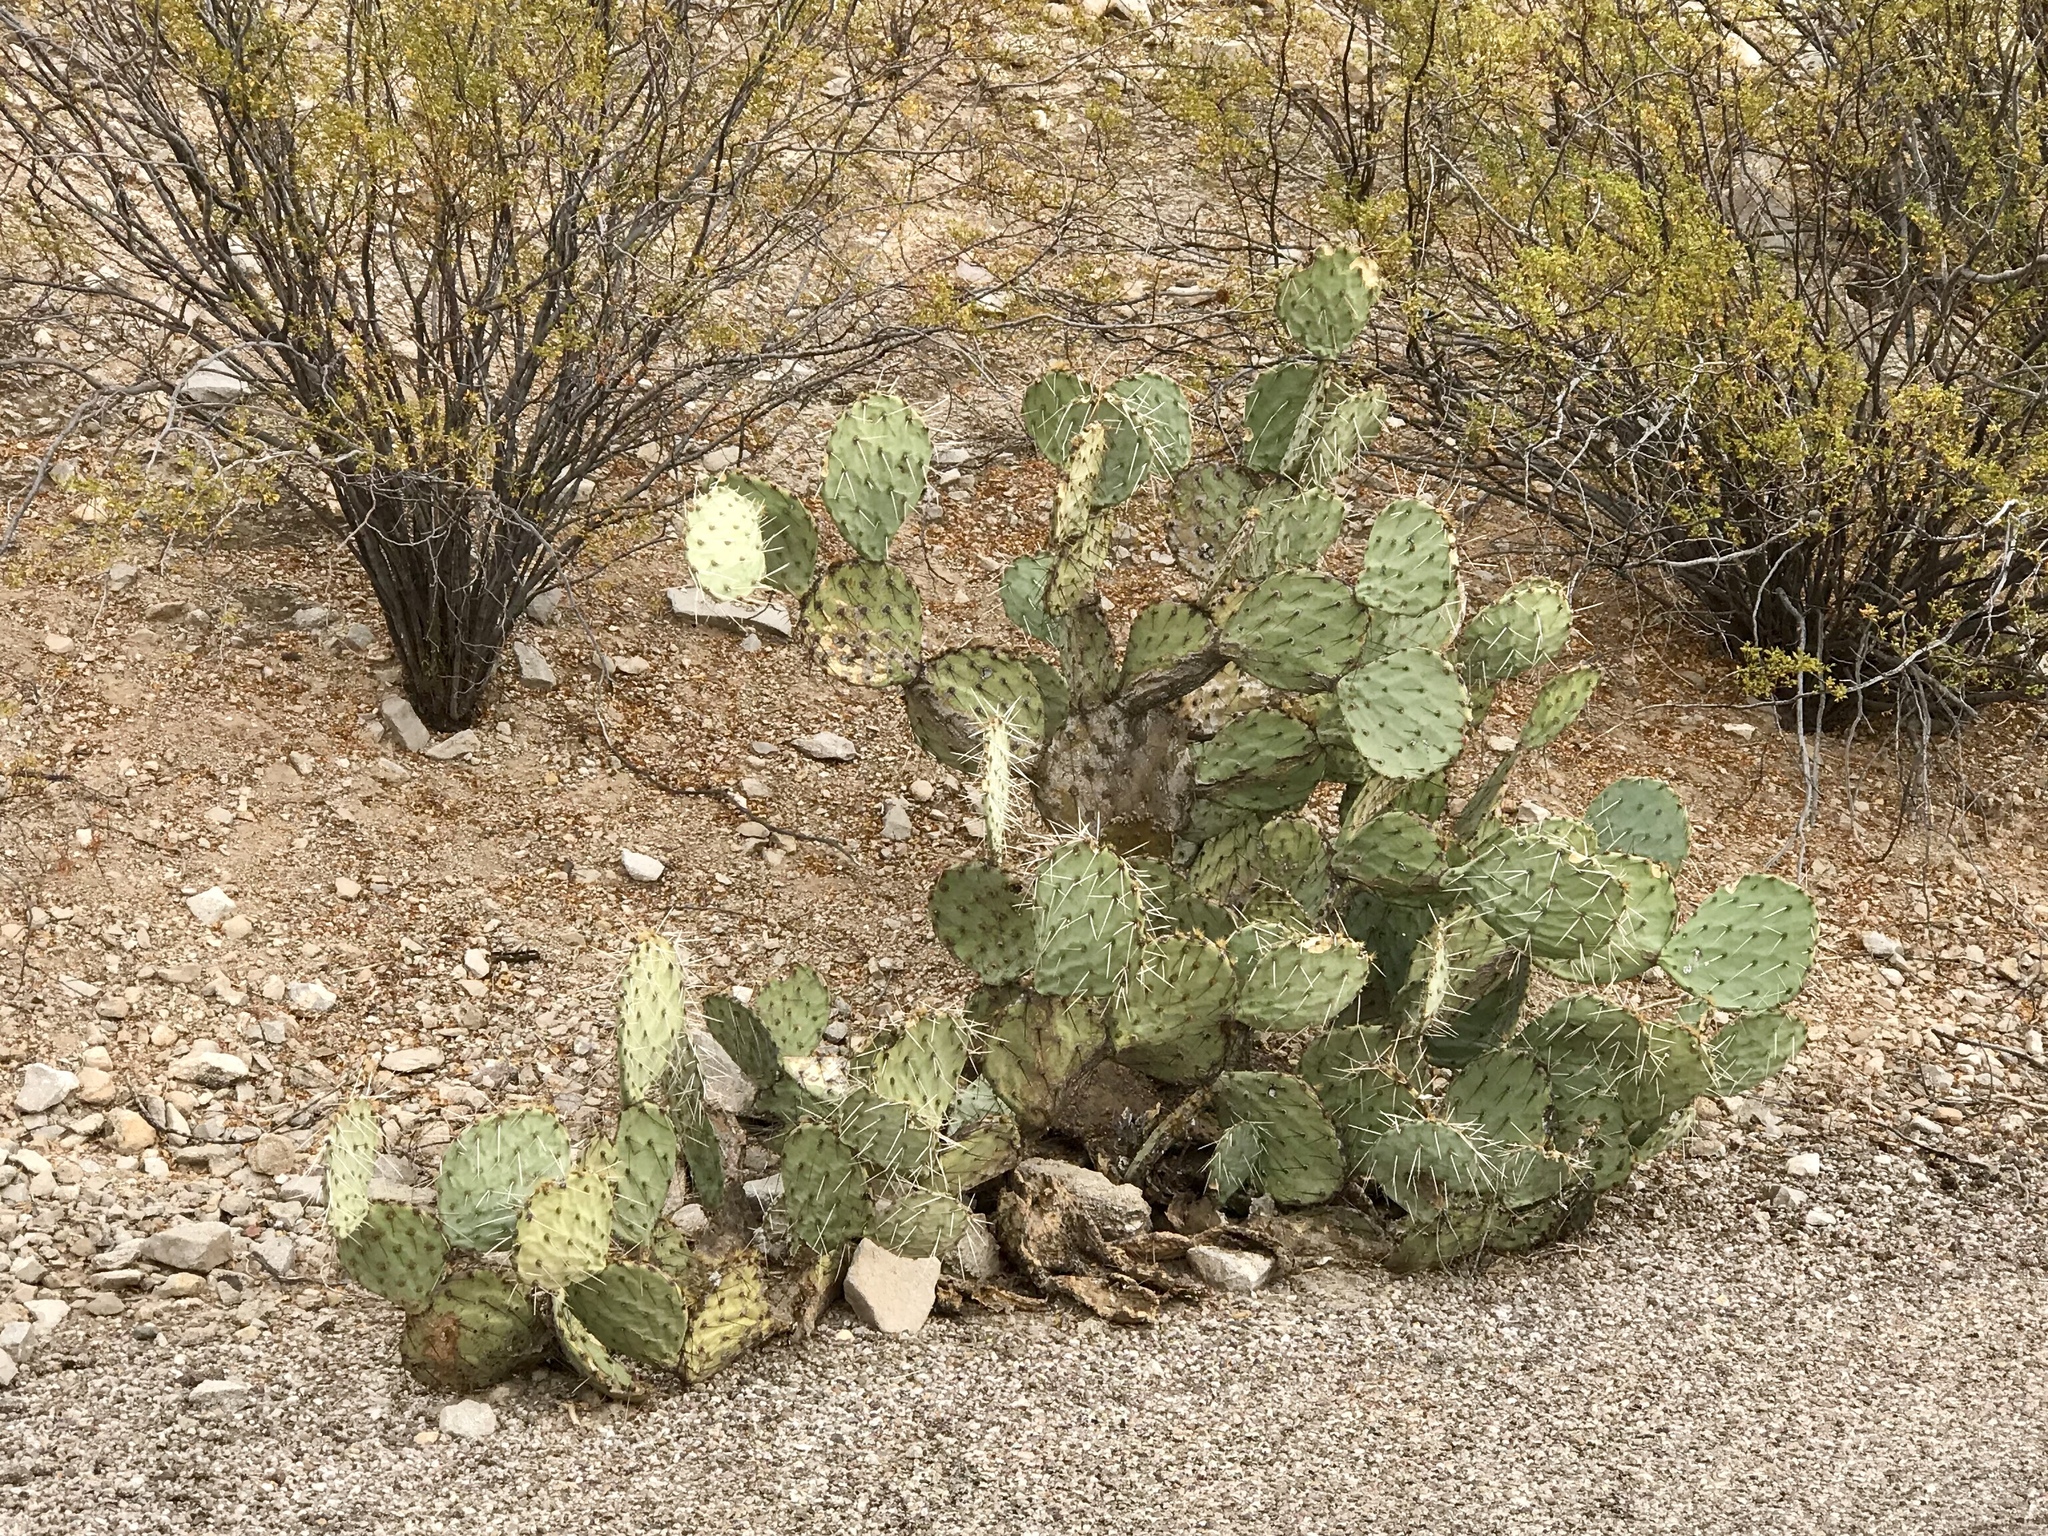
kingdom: Plantae
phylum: Tracheophyta
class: Magnoliopsida
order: Caryophyllales
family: Cactaceae
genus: Opuntia
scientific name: Opuntia engelmannii
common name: Cactus-apple
